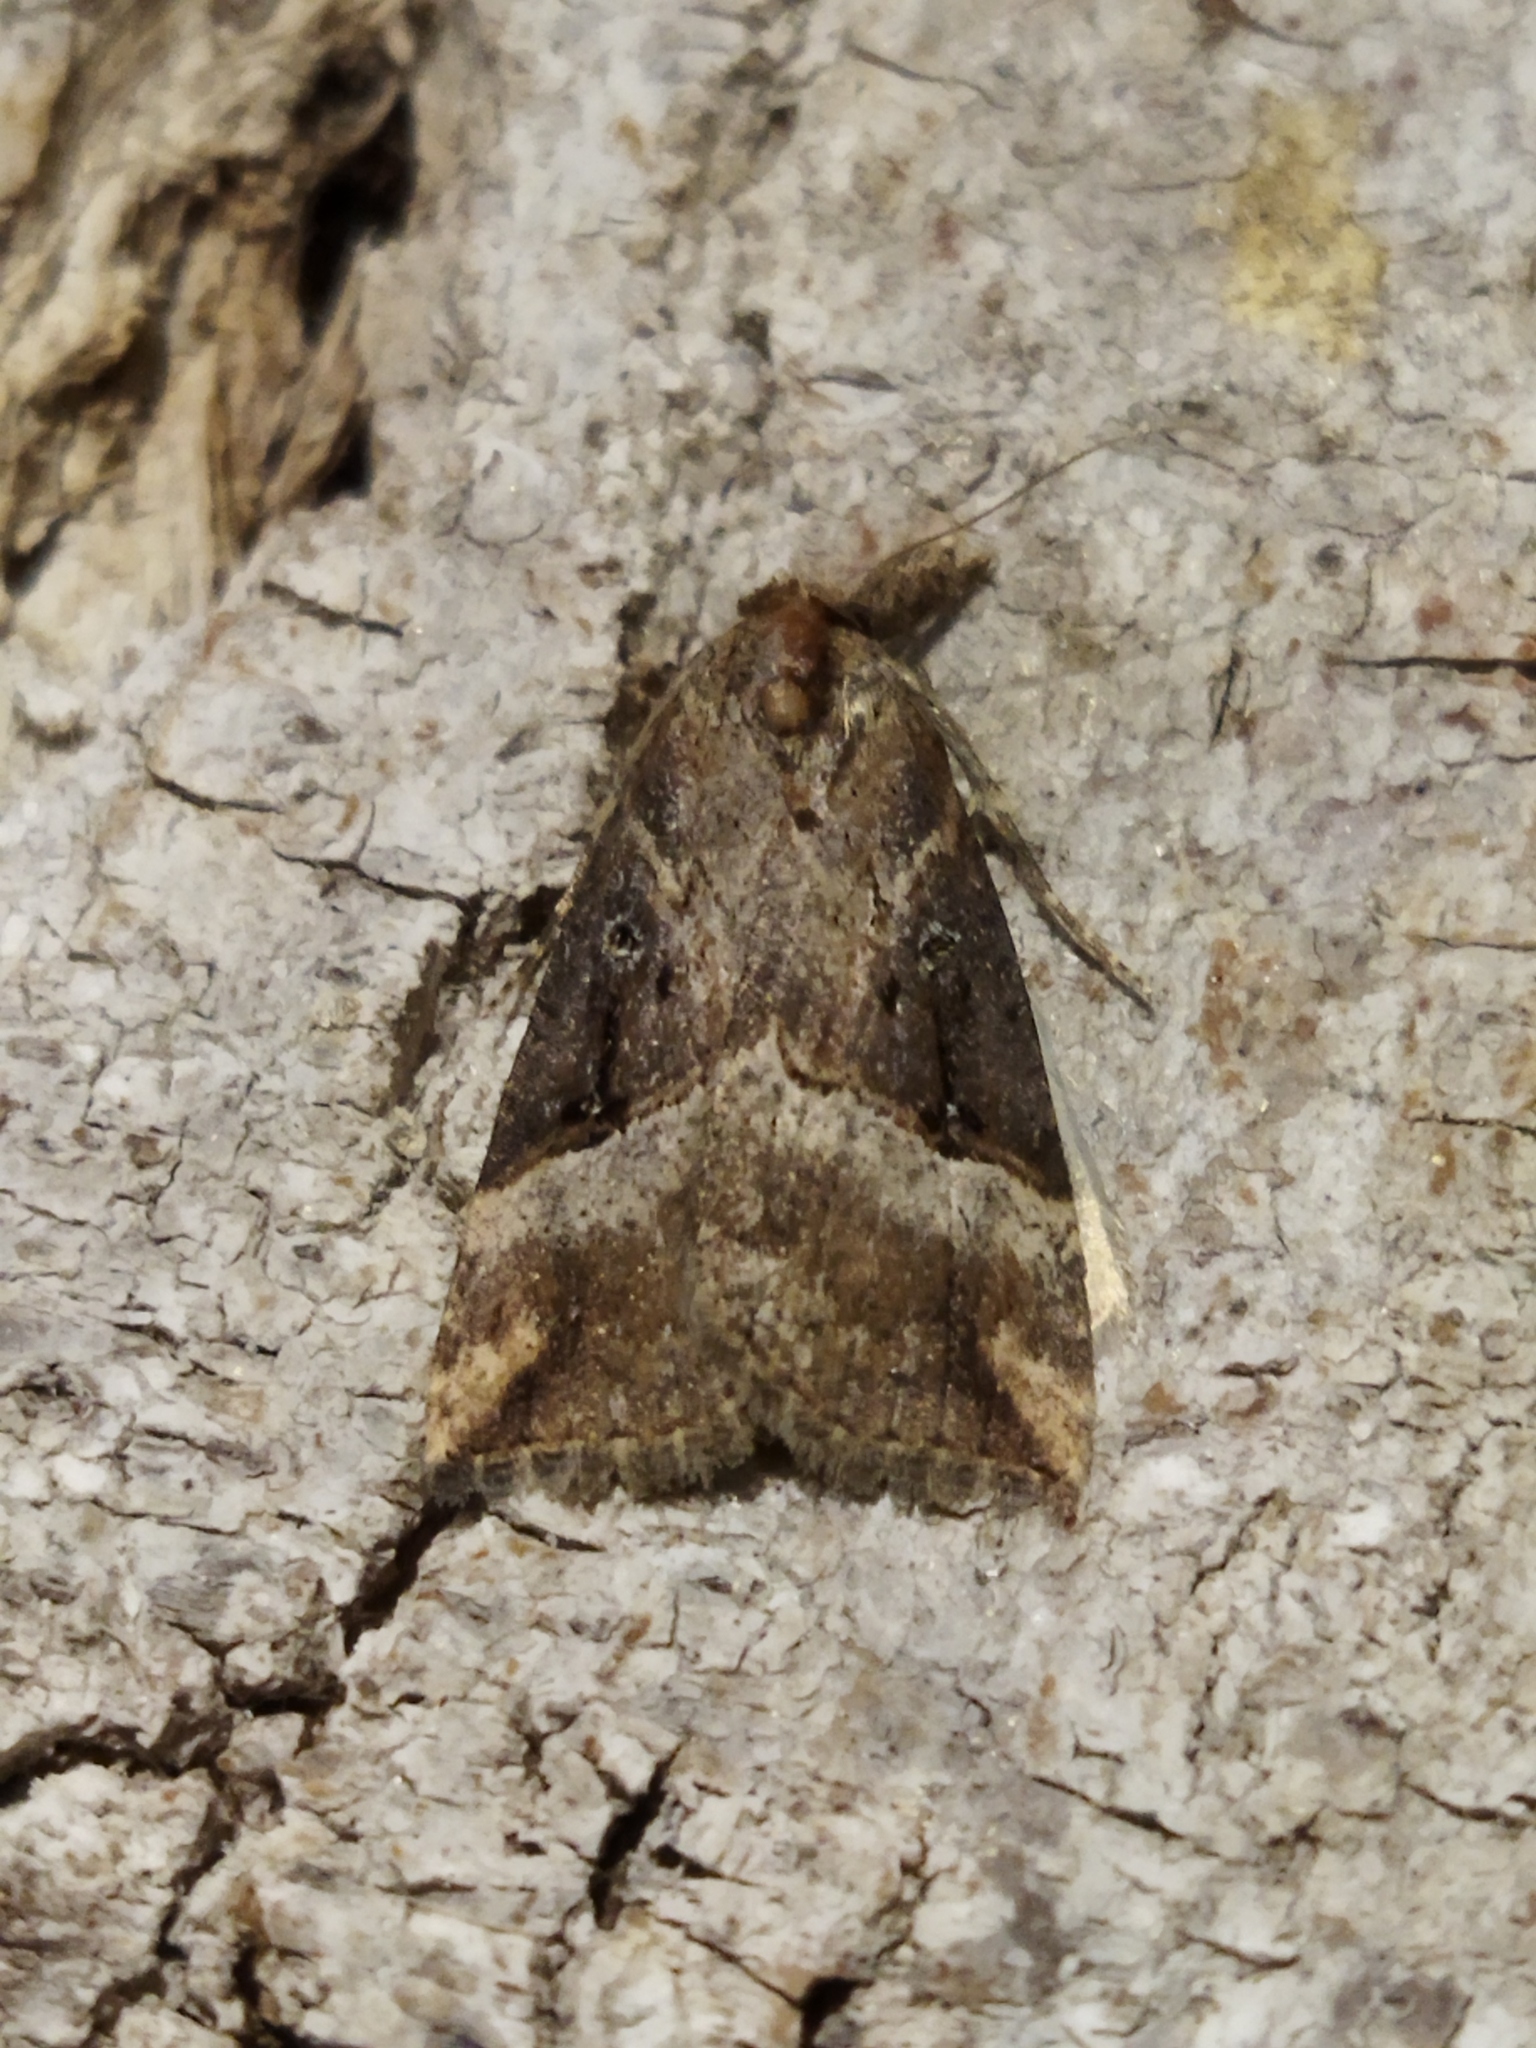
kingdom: Animalia
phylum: Arthropoda
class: Insecta
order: Lepidoptera
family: Erebidae
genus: Hypena
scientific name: Hypena rostralis
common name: Buttoned snout
